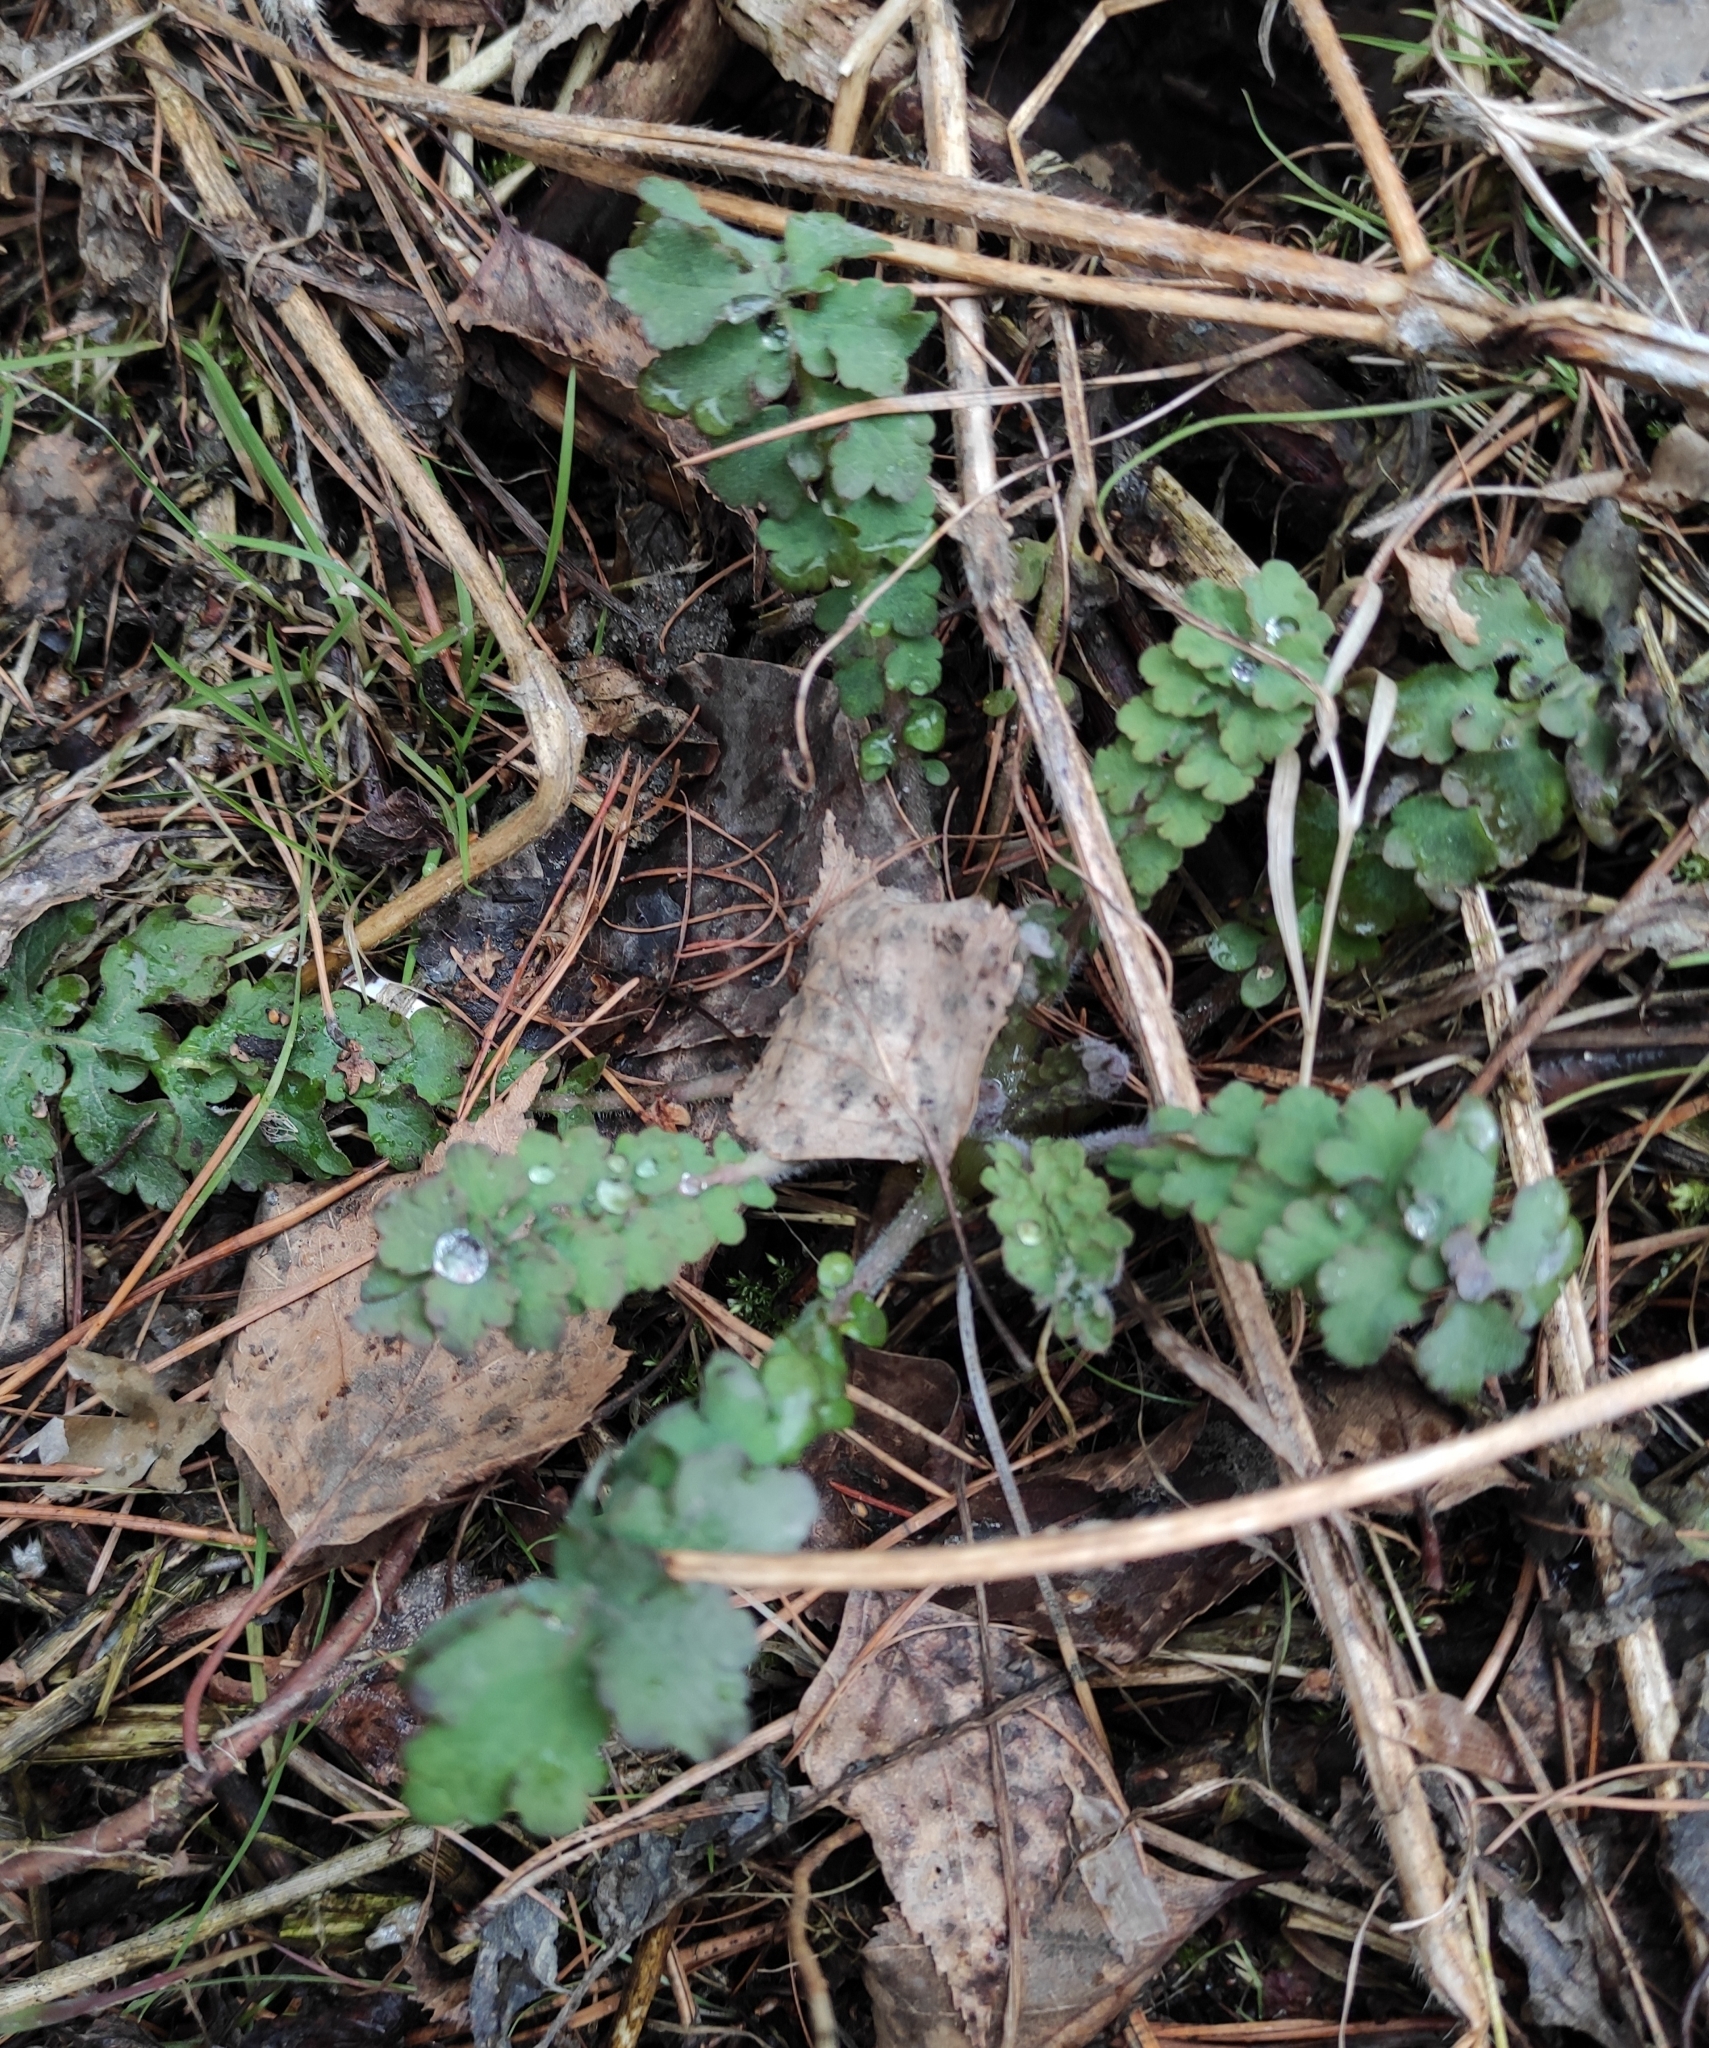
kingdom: Plantae
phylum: Tracheophyta
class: Magnoliopsida
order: Ranunculales
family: Papaveraceae
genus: Chelidonium
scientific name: Chelidonium majus
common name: Greater celandine
